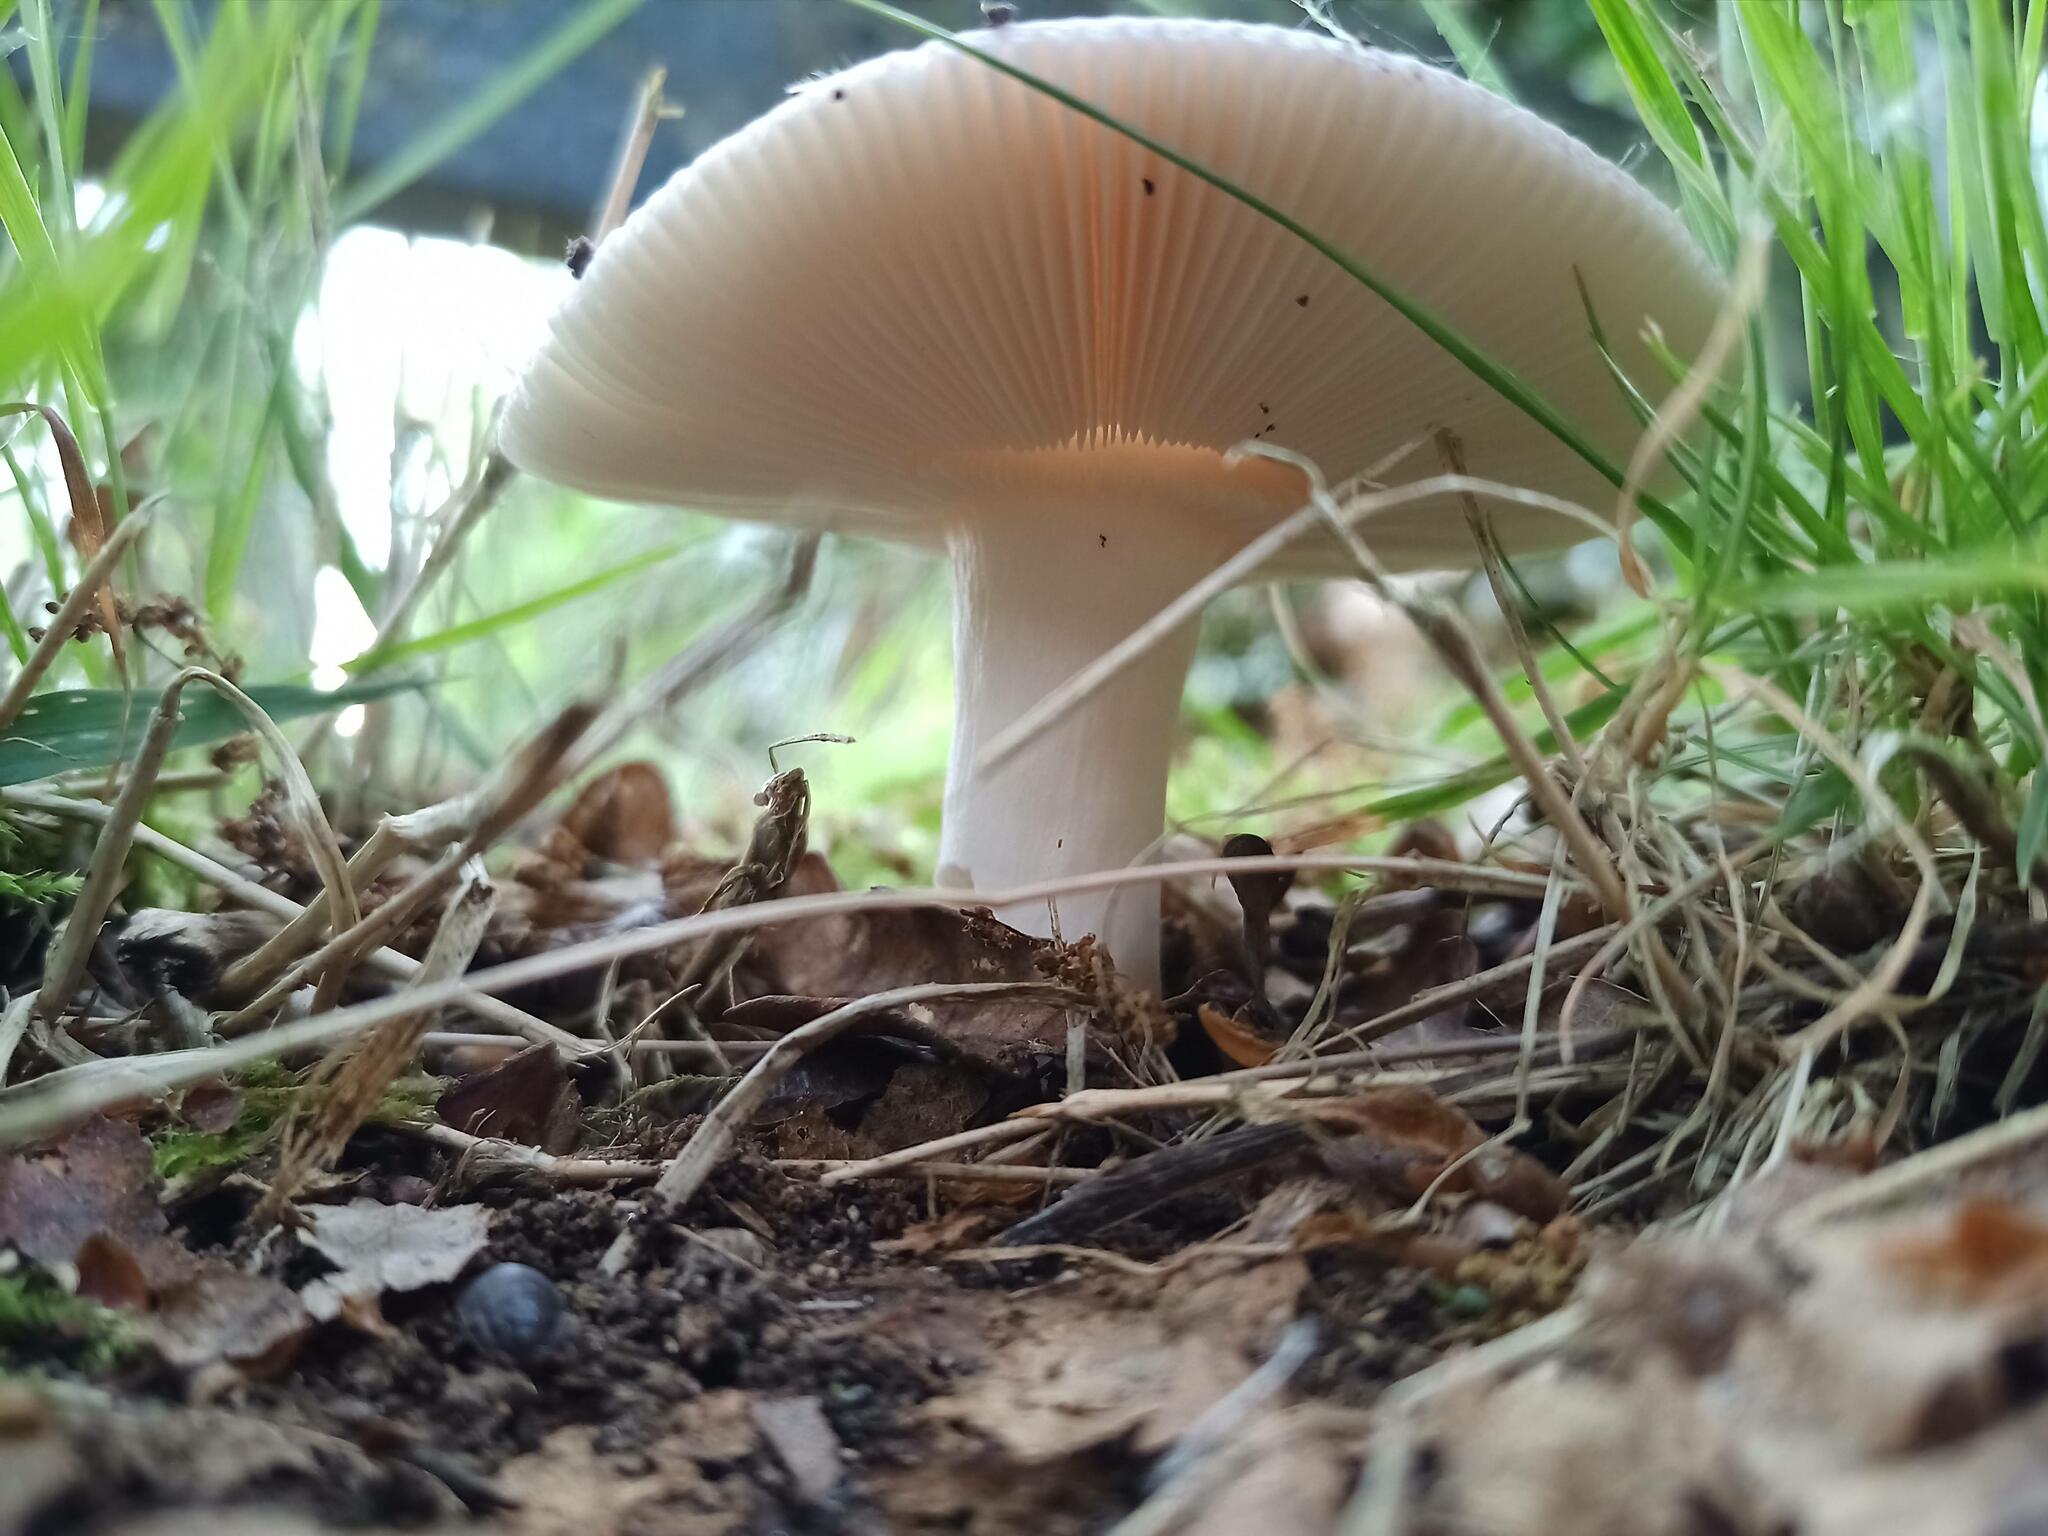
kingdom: Fungi
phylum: Basidiomycota
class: Agaricomycetes
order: Russulales
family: Russulaceae
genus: Russula
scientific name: Russula vesca
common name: Bare-toothed russula
